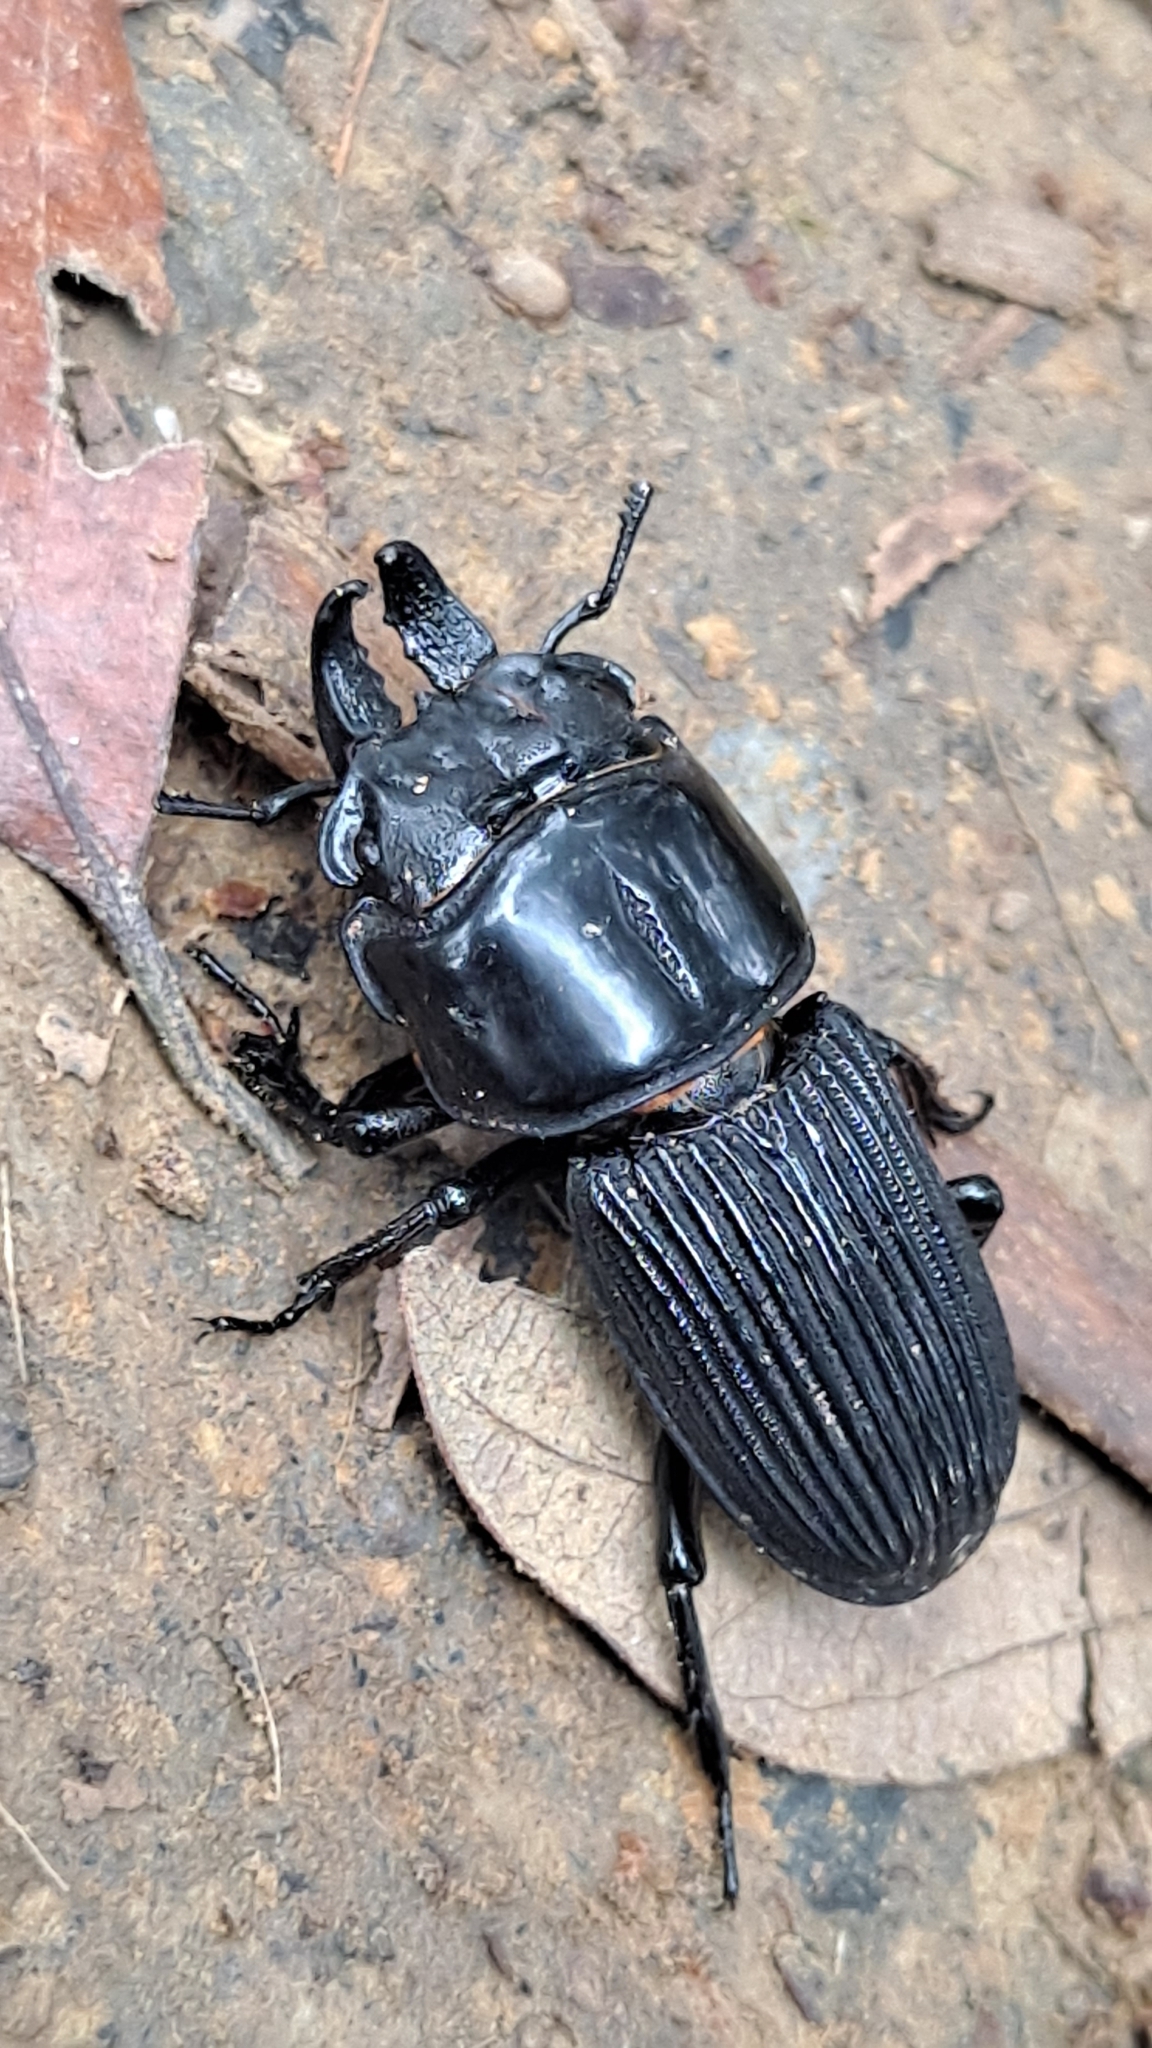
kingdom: Animalia
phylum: Arthropoda
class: Insecta
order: Coleoptera
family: Lucanidae
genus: Nigidionus
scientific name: Nigidionus parryi
